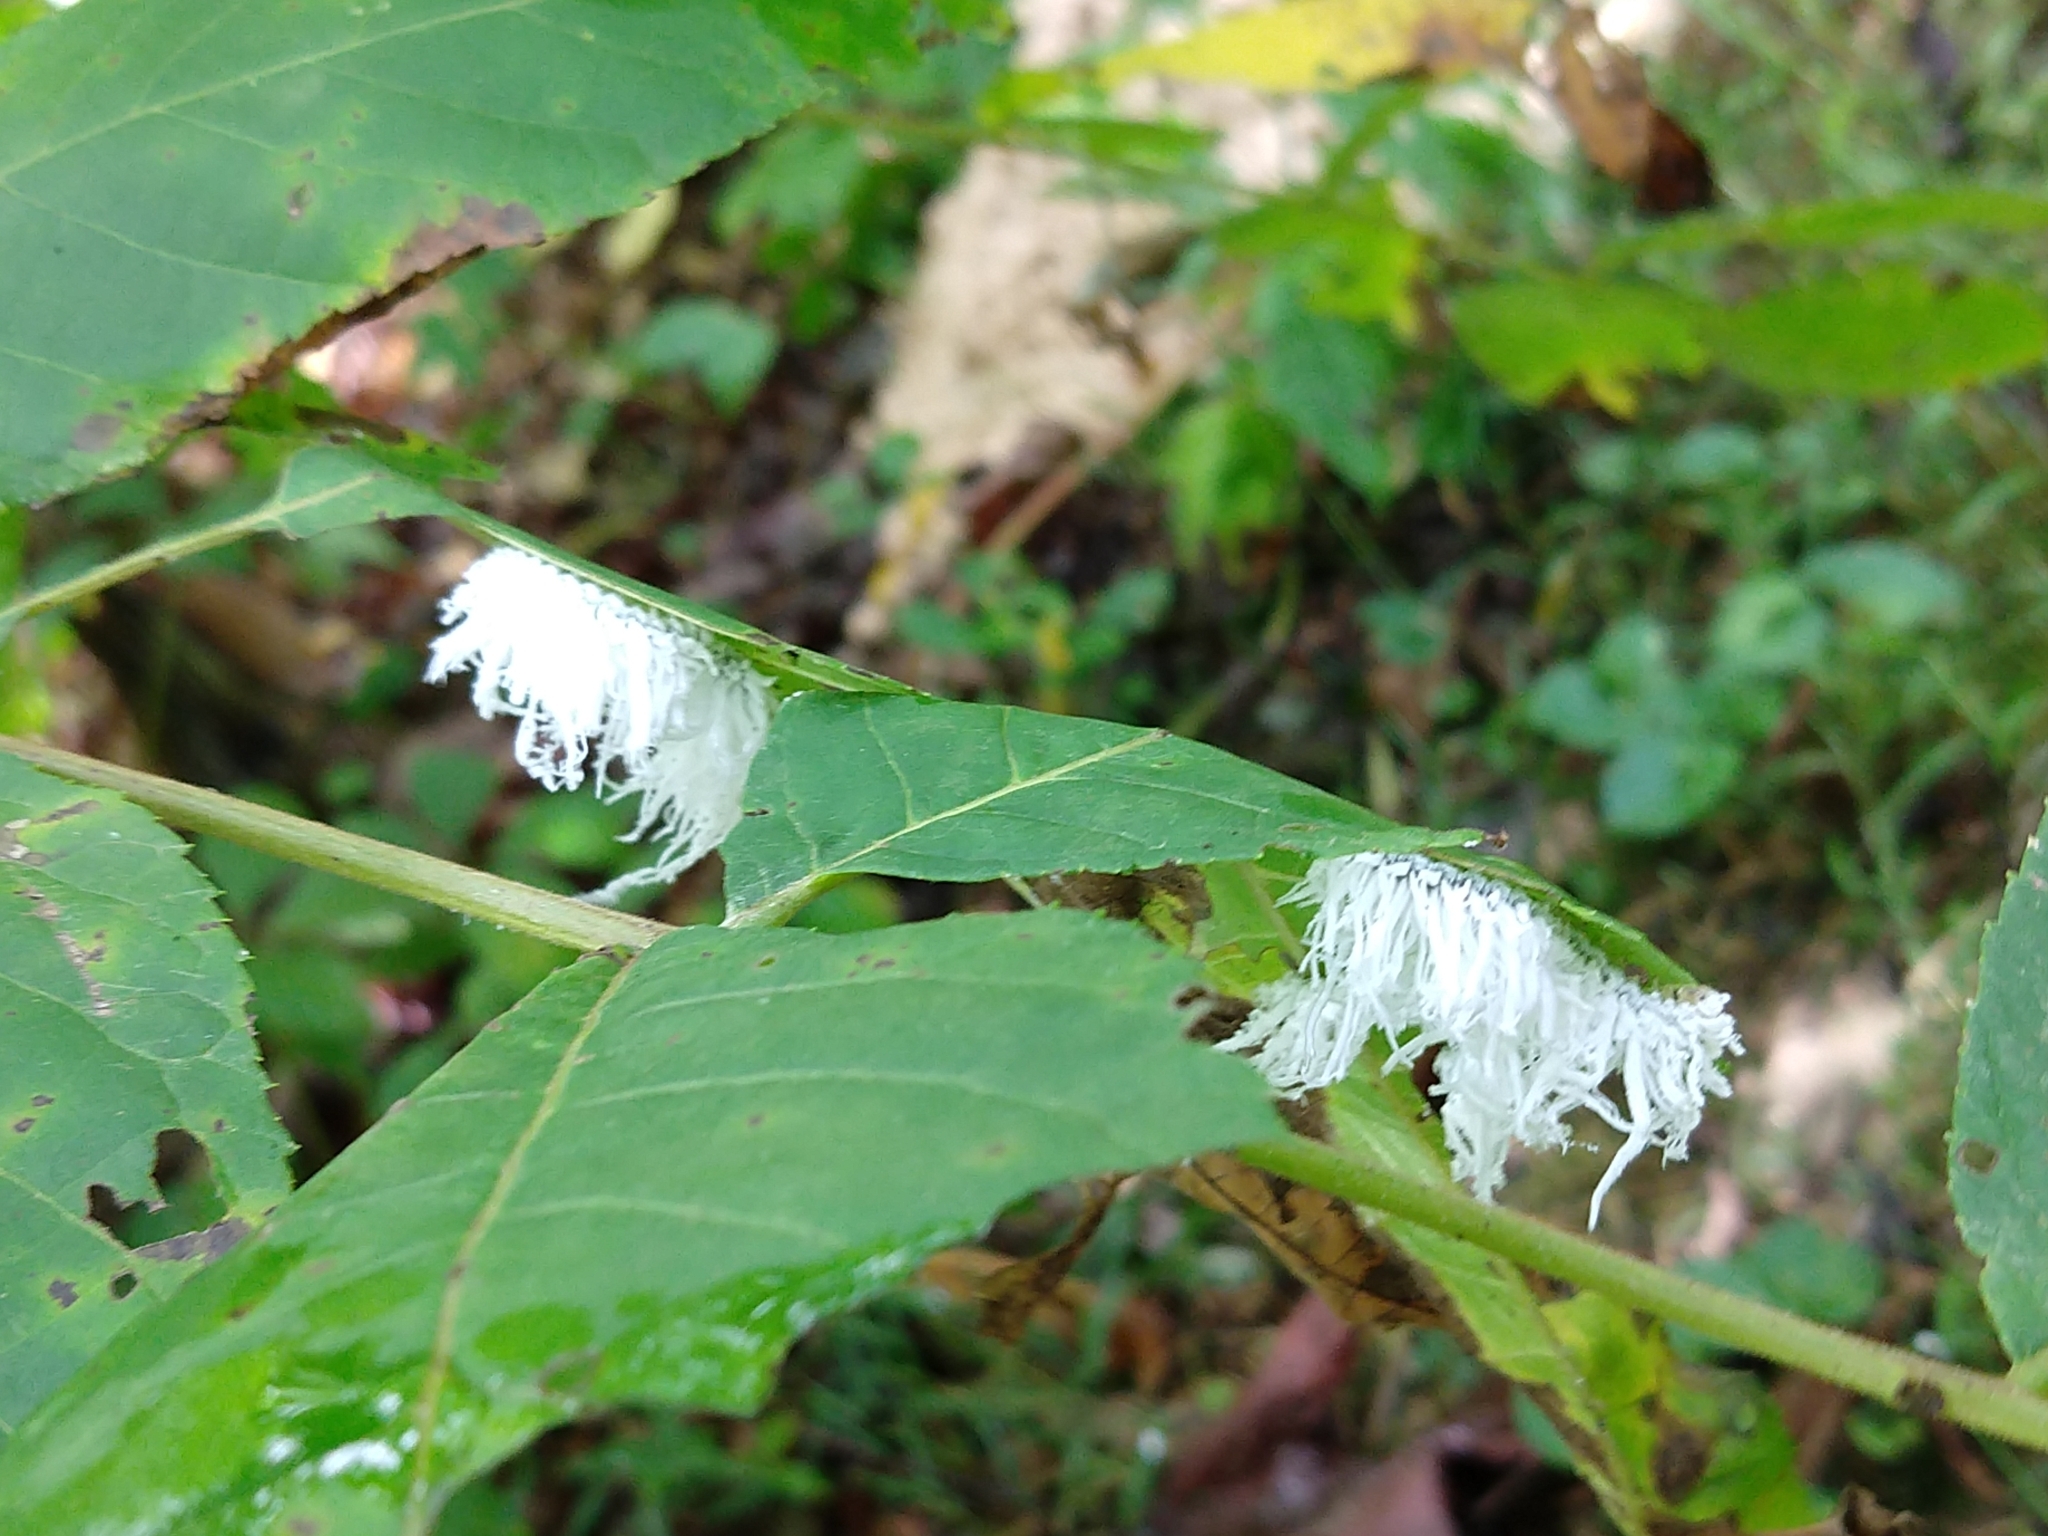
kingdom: Animalia
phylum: Arthropoda
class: Insecta
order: Hymenoptera
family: Tenthredinidae
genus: Eriocampa
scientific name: Eriocampa juglandis
